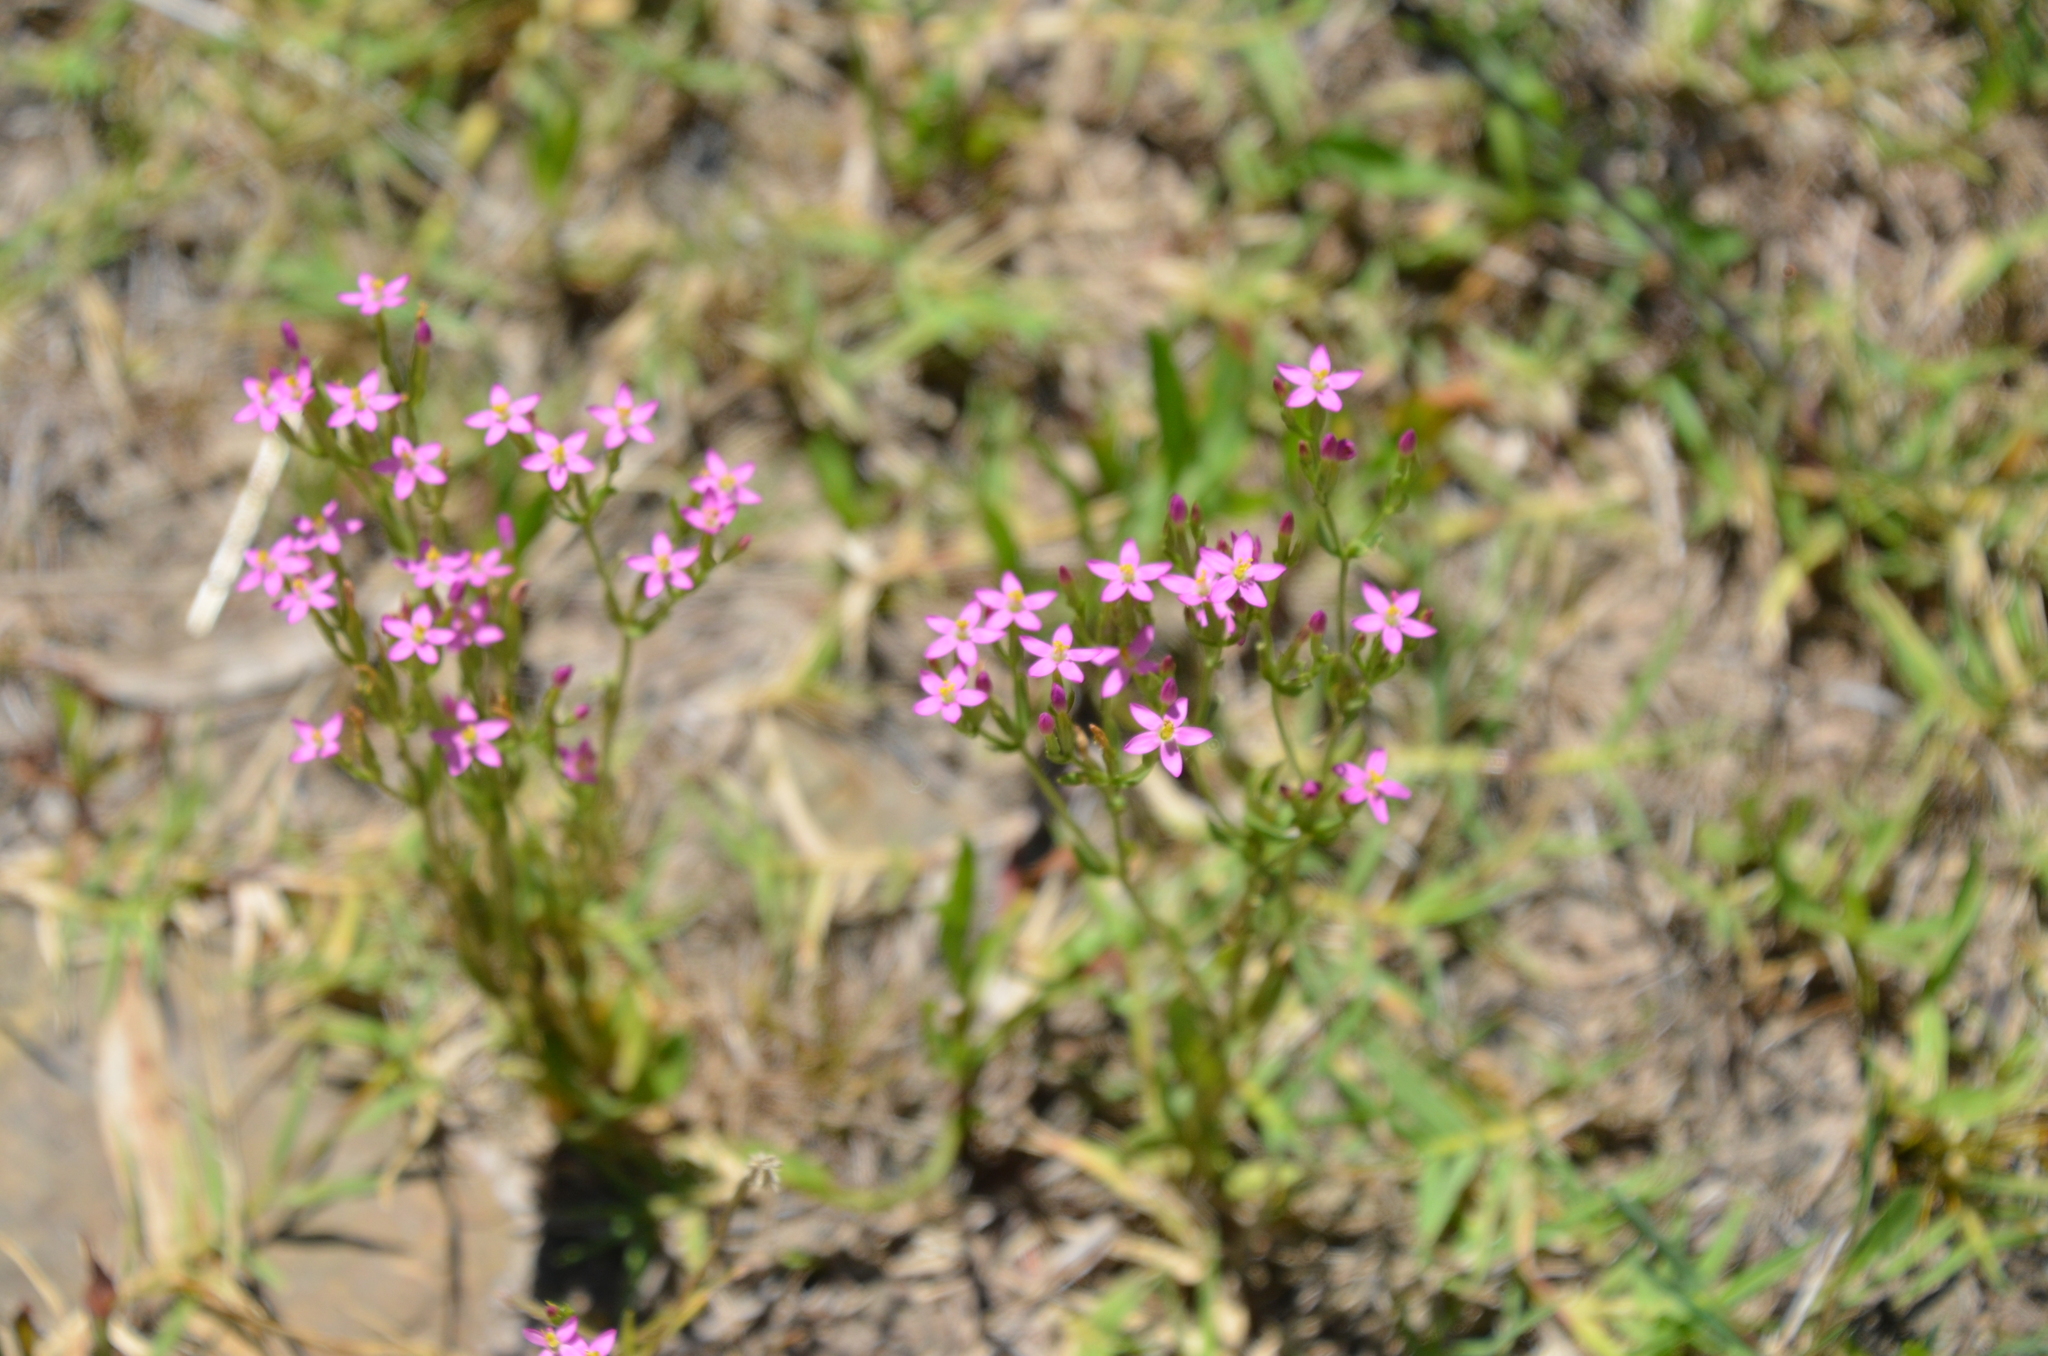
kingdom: Plantae
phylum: Tracheophyta
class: Magnoliopsida
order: Gentianales
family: Gentianaceae
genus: Centaurium
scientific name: Centaurium pulchellum
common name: Lesser centaury
